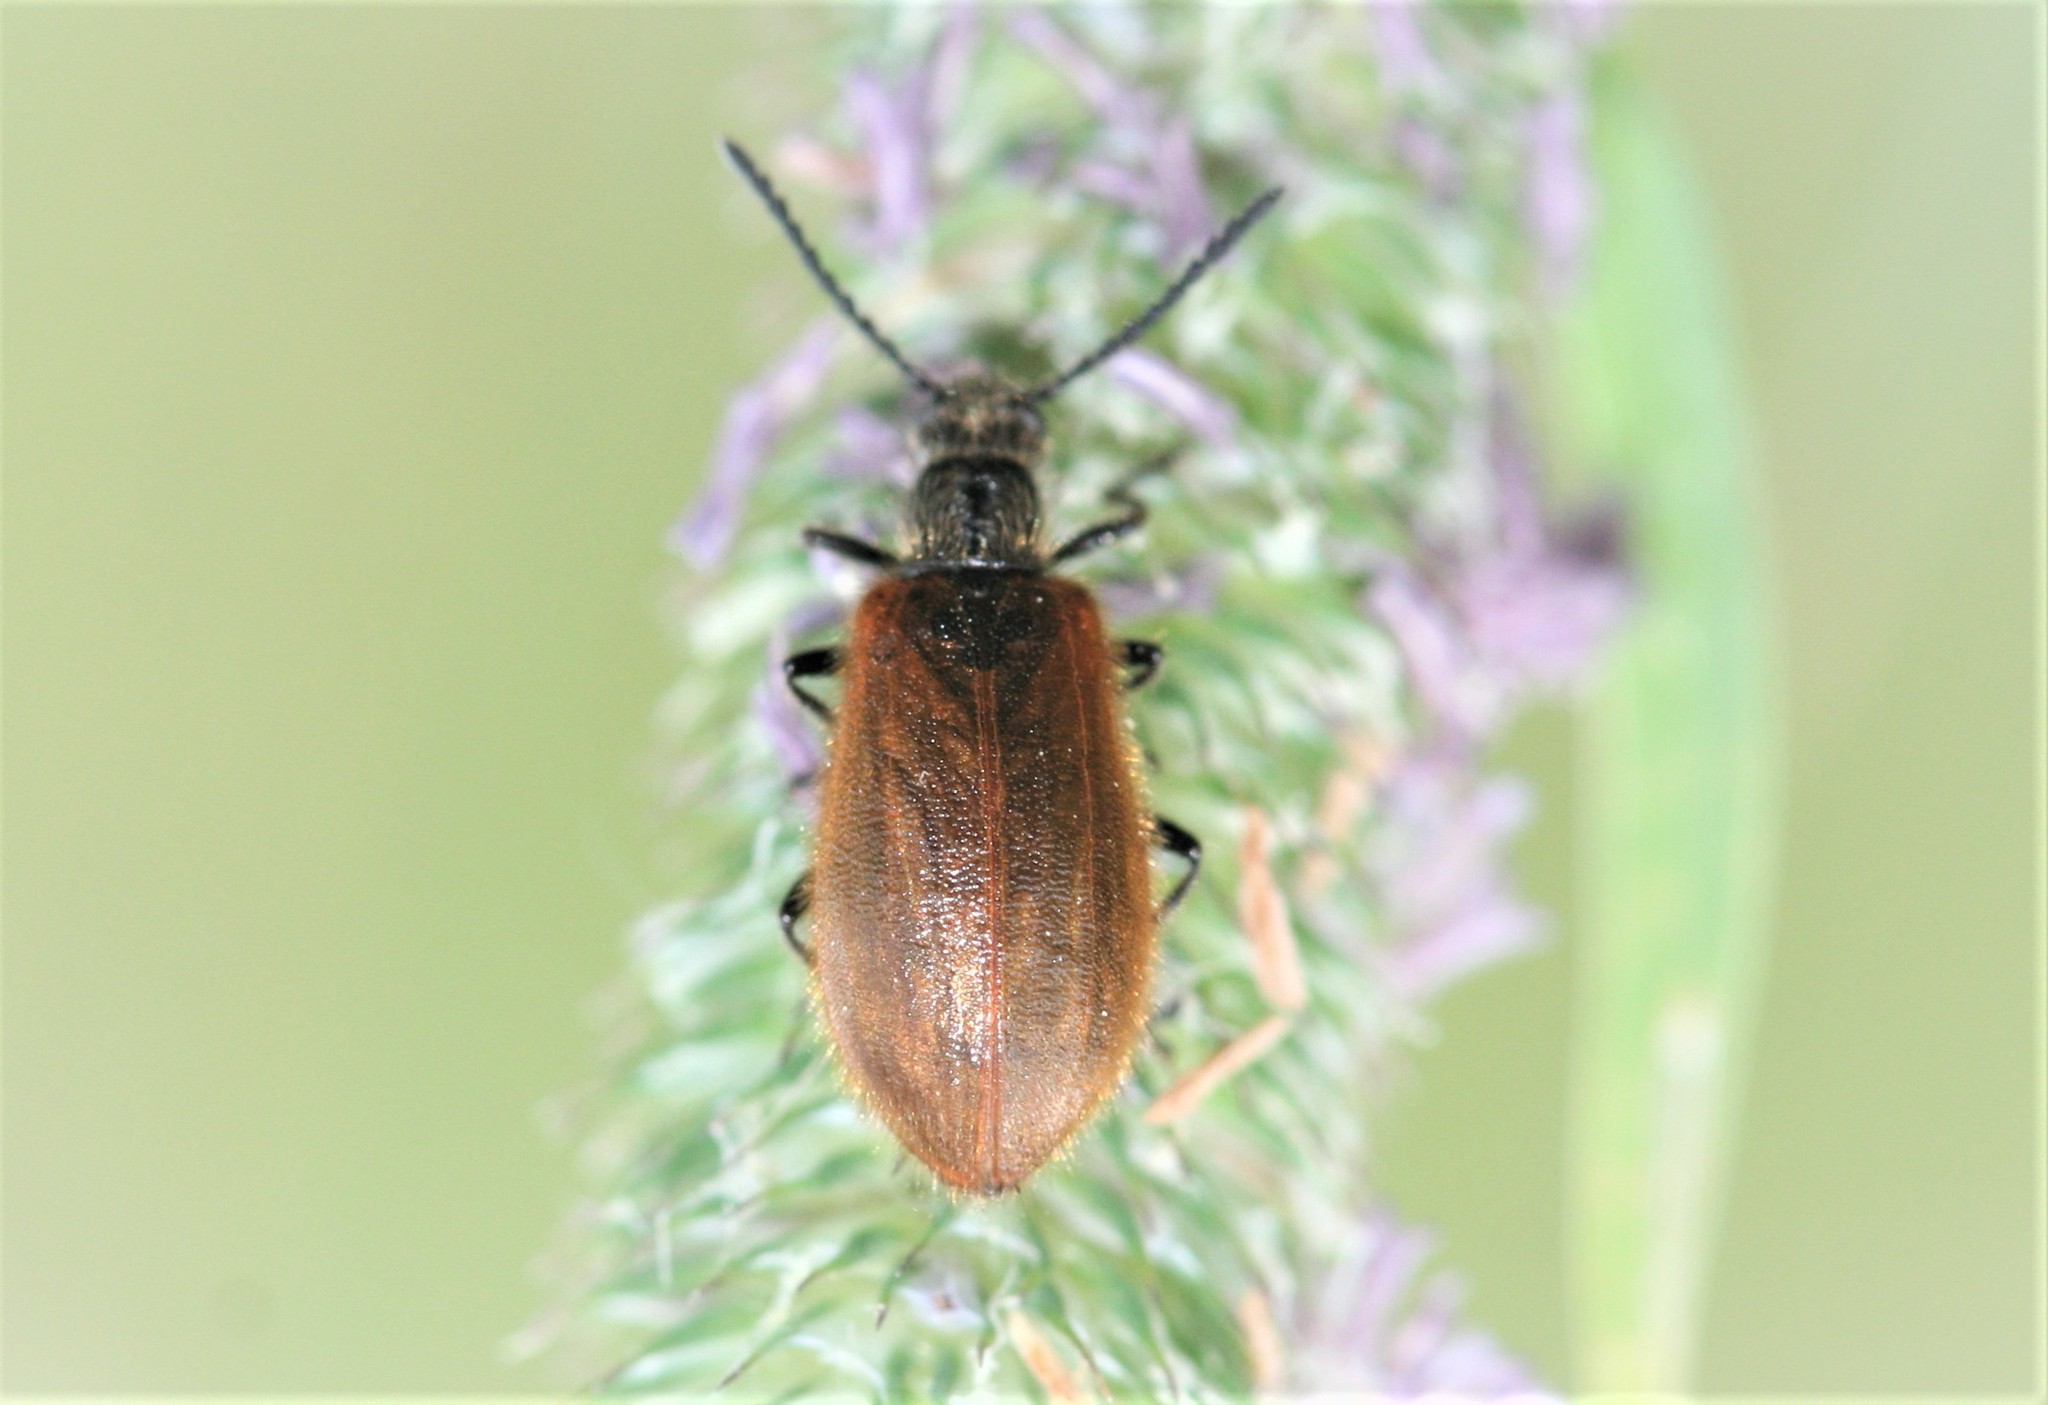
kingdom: Animalia
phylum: Arthropoda
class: Insecta
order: Coleoptera
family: Tenebrionidae
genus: Lagria
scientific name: Lagria hirta
